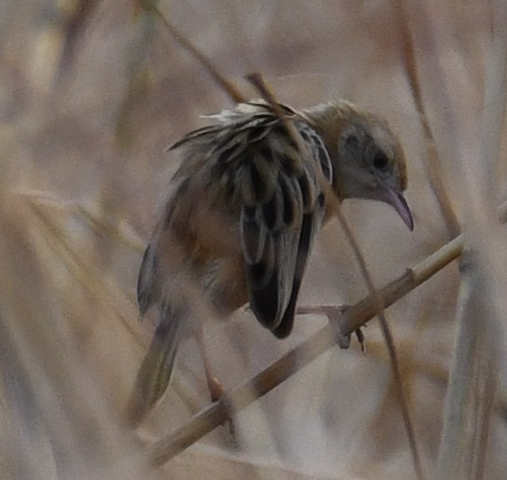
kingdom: Animalia
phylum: Chordata
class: Aves
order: Passeriformes
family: Cisticolidae
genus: Cisticola
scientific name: Cisticola eximius
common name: Black-backed cisticola
